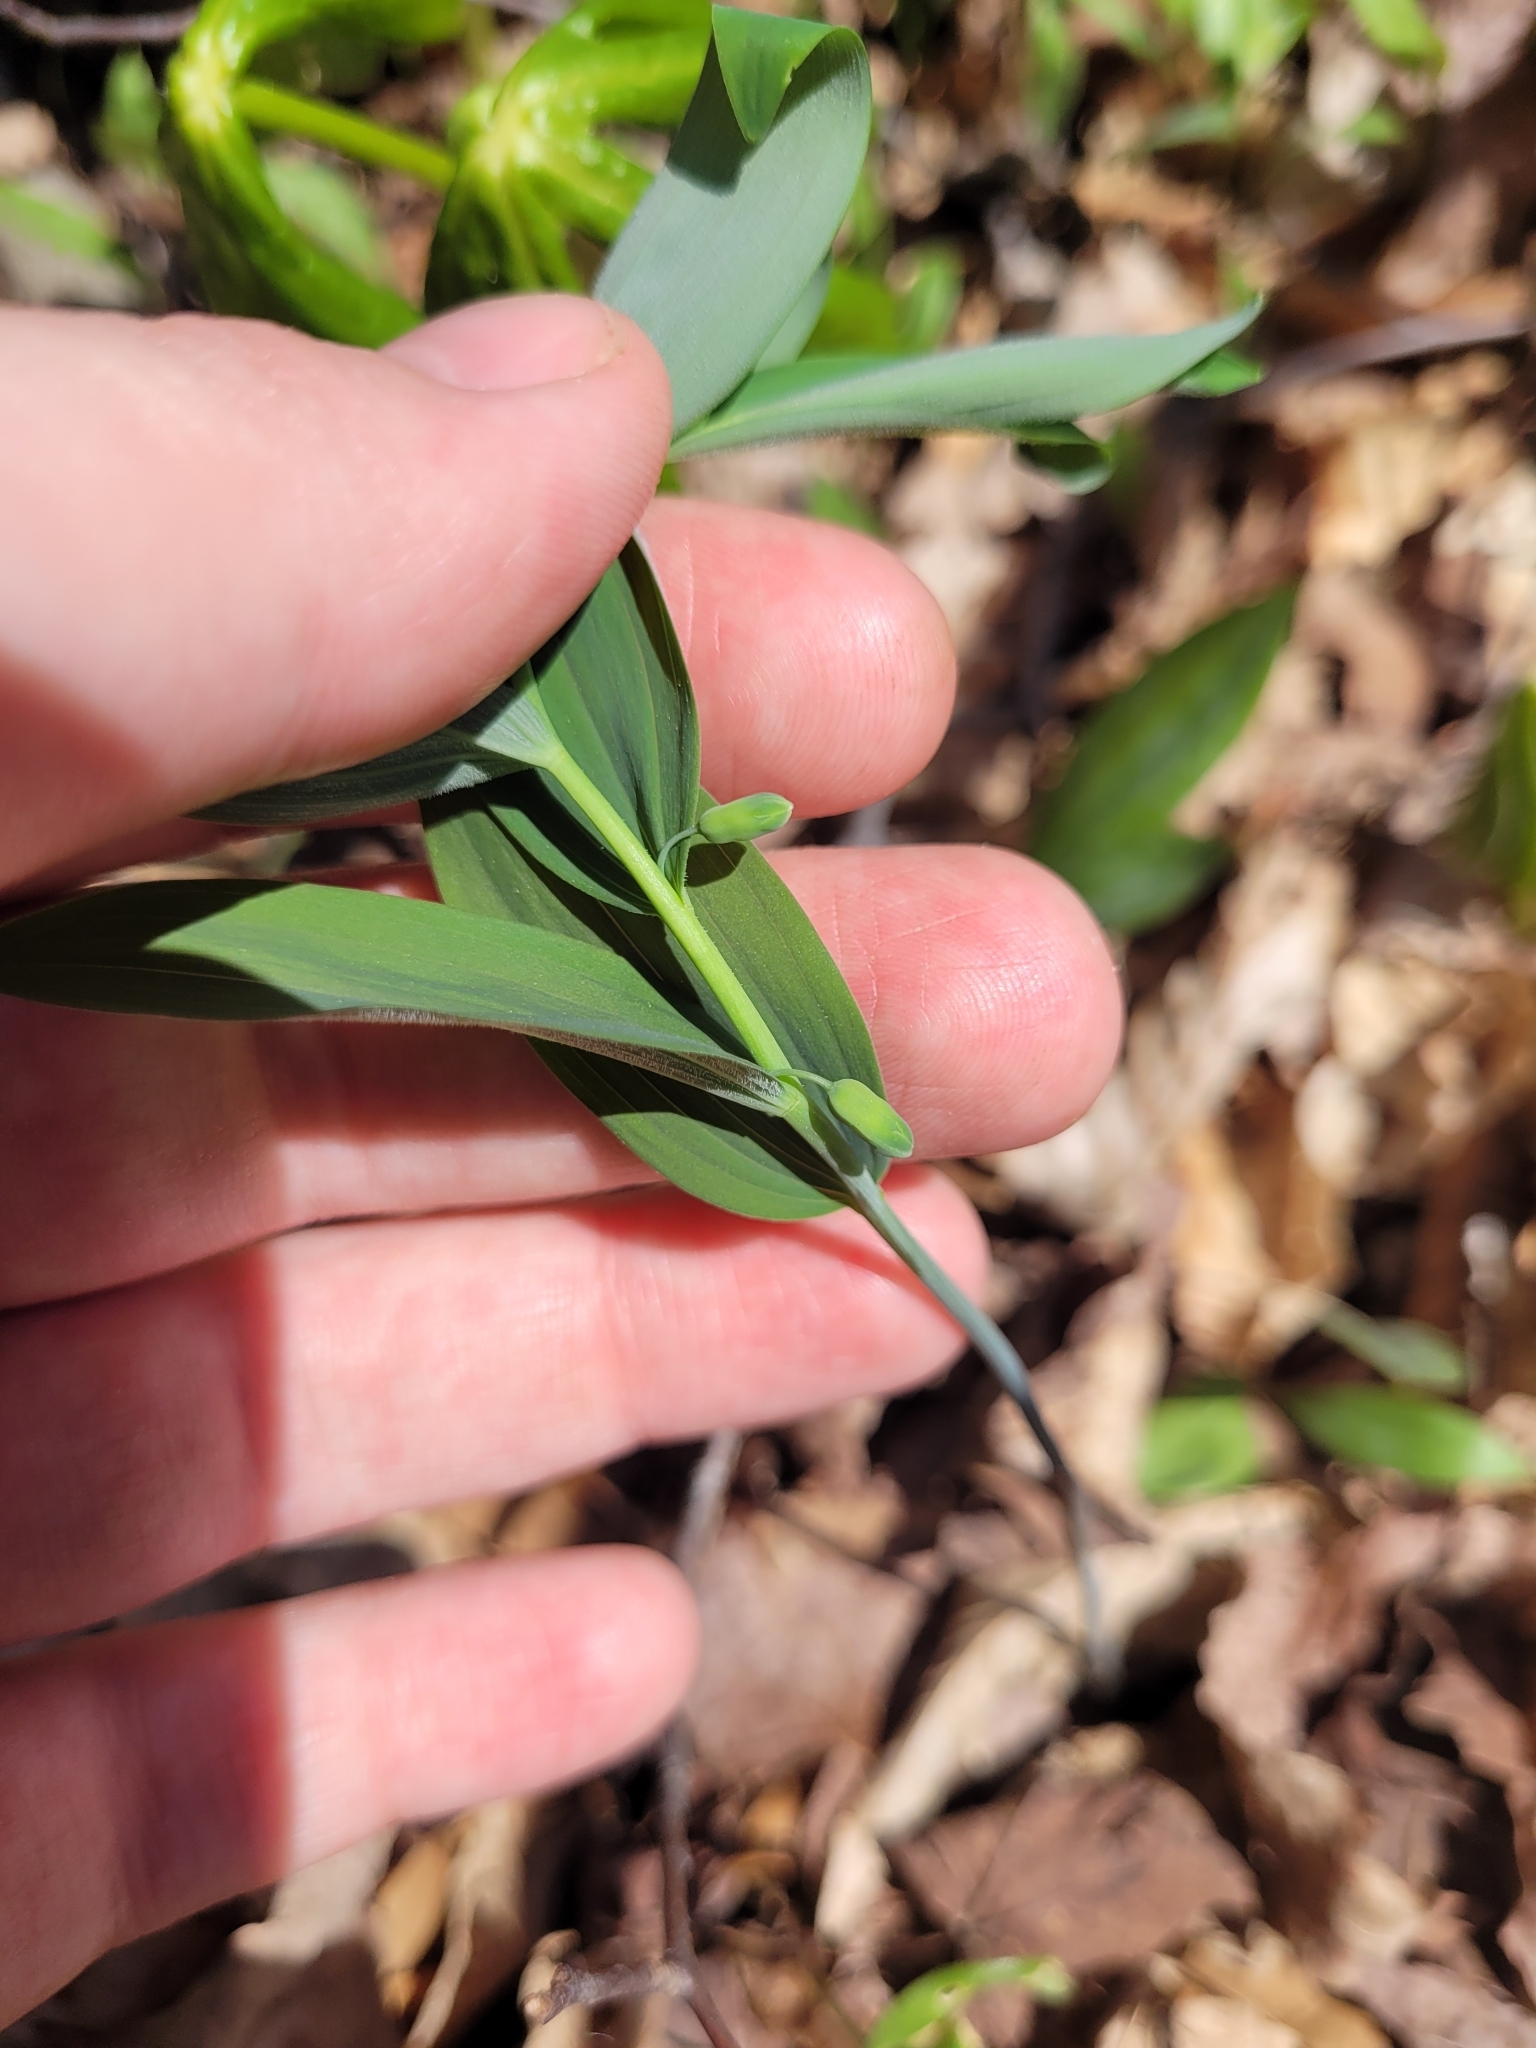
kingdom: Plantae
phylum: Tracheophyta
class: Liliopsida
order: Asparagales
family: Asparagaceae
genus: Polygonatum
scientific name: Polygonatum pubescens
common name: Downy solomon's seal
